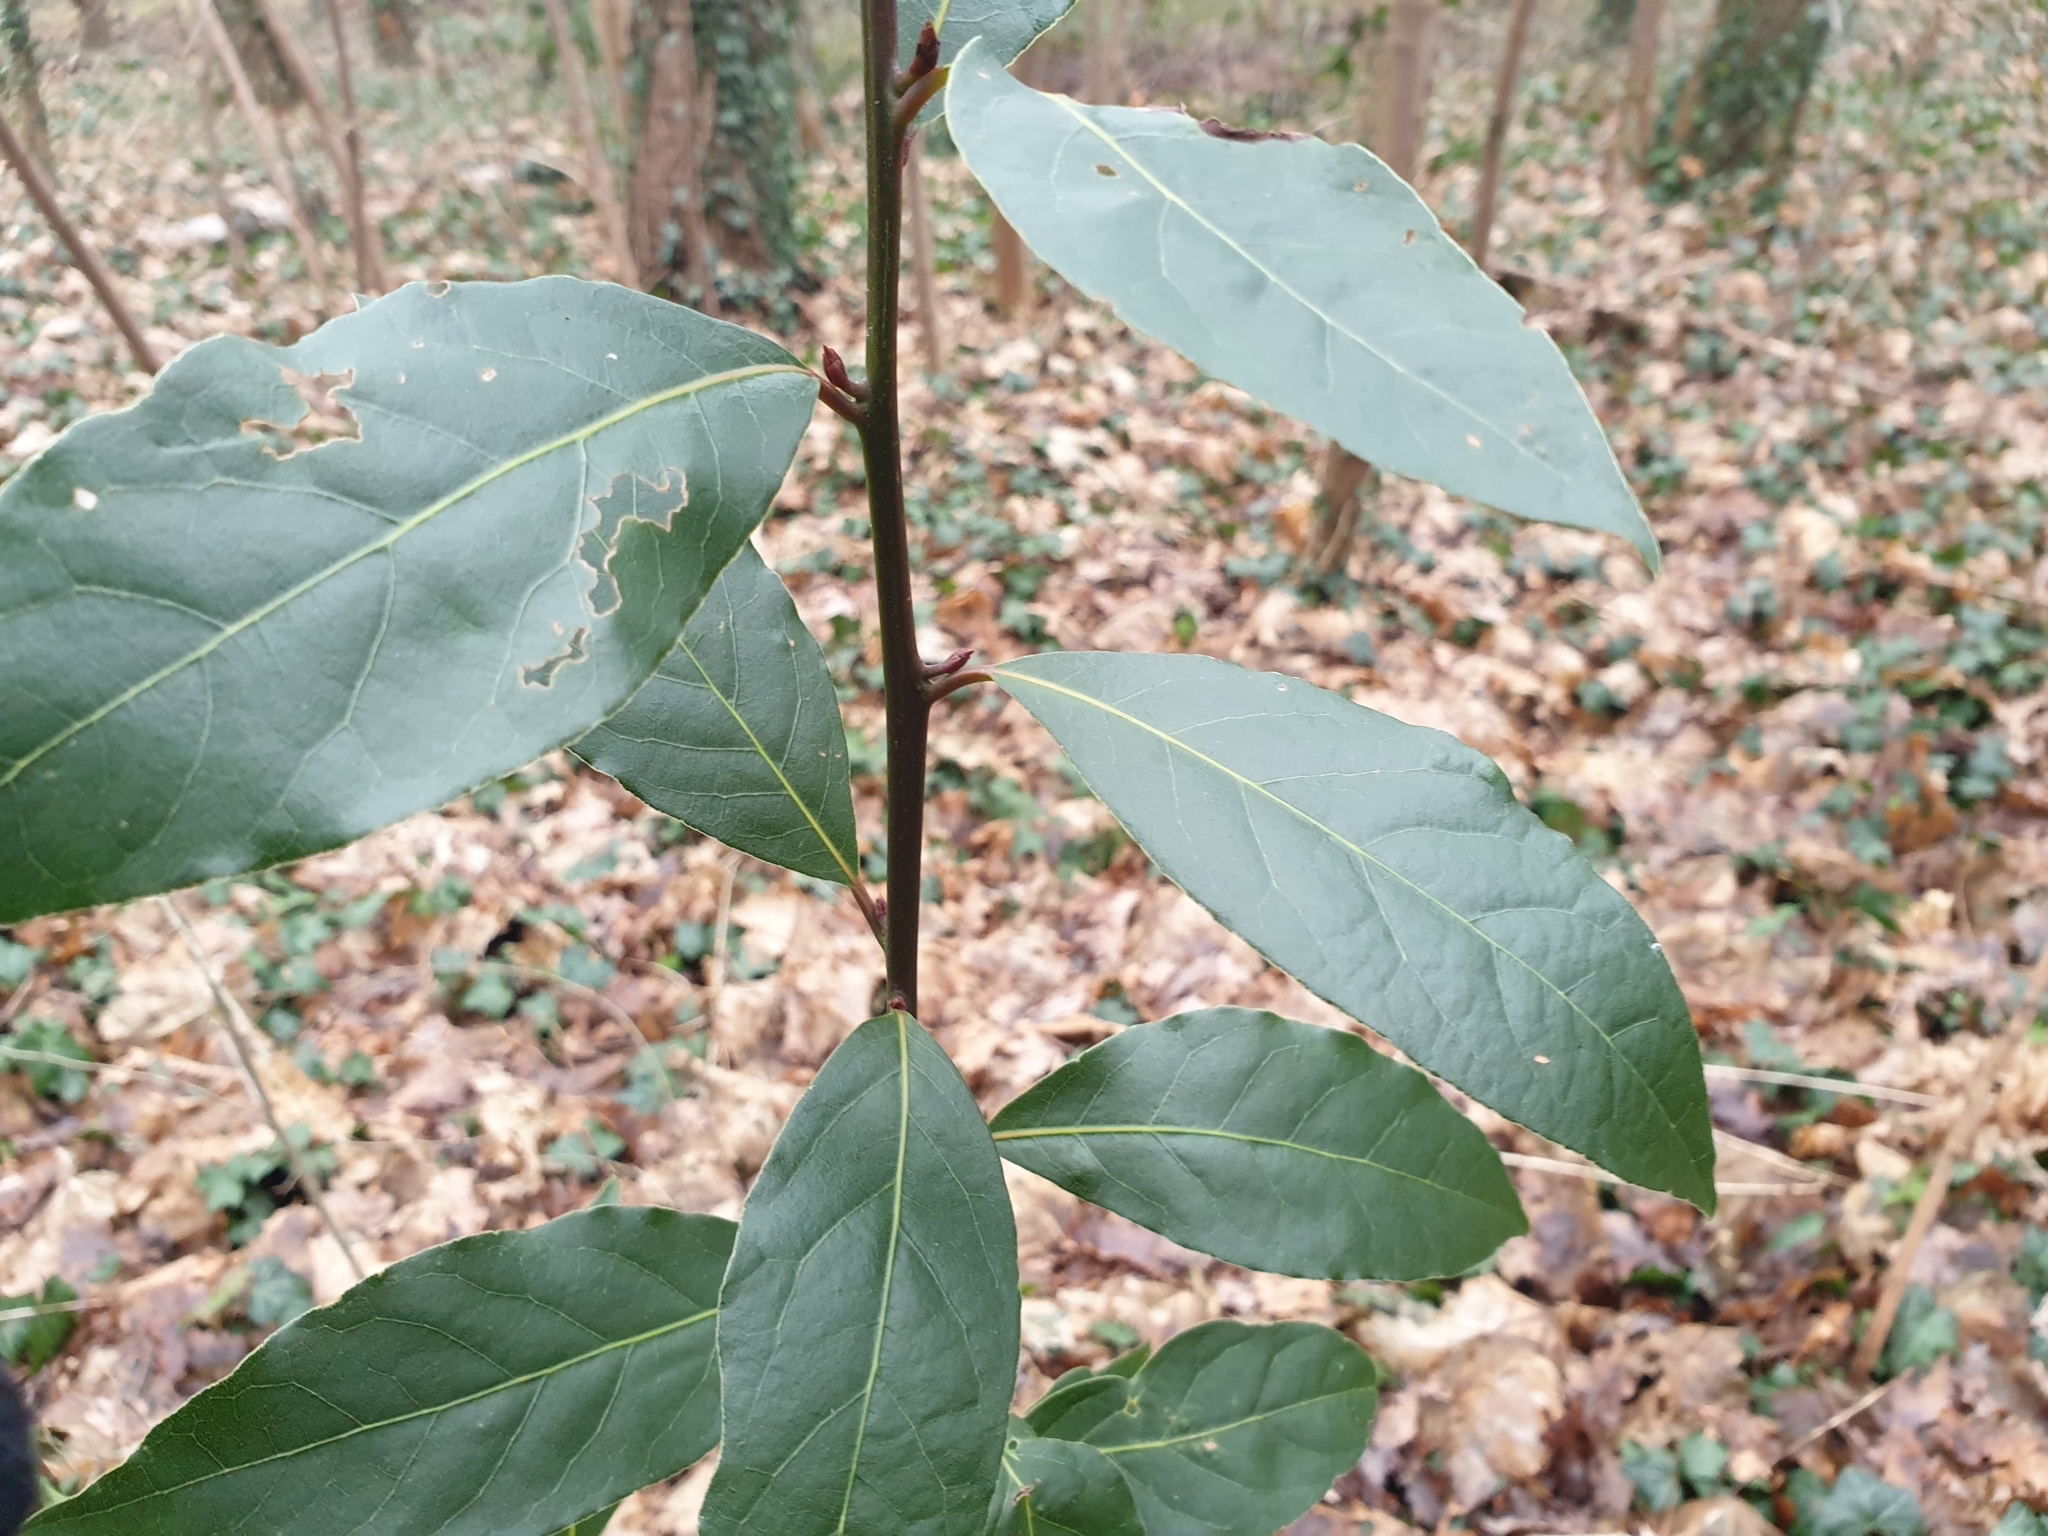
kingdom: Plantae
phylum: Tracheophyta
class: Magnoliopsida
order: Laurales
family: Lauraceae
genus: Laurus
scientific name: Laurus nobilis
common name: Bay
